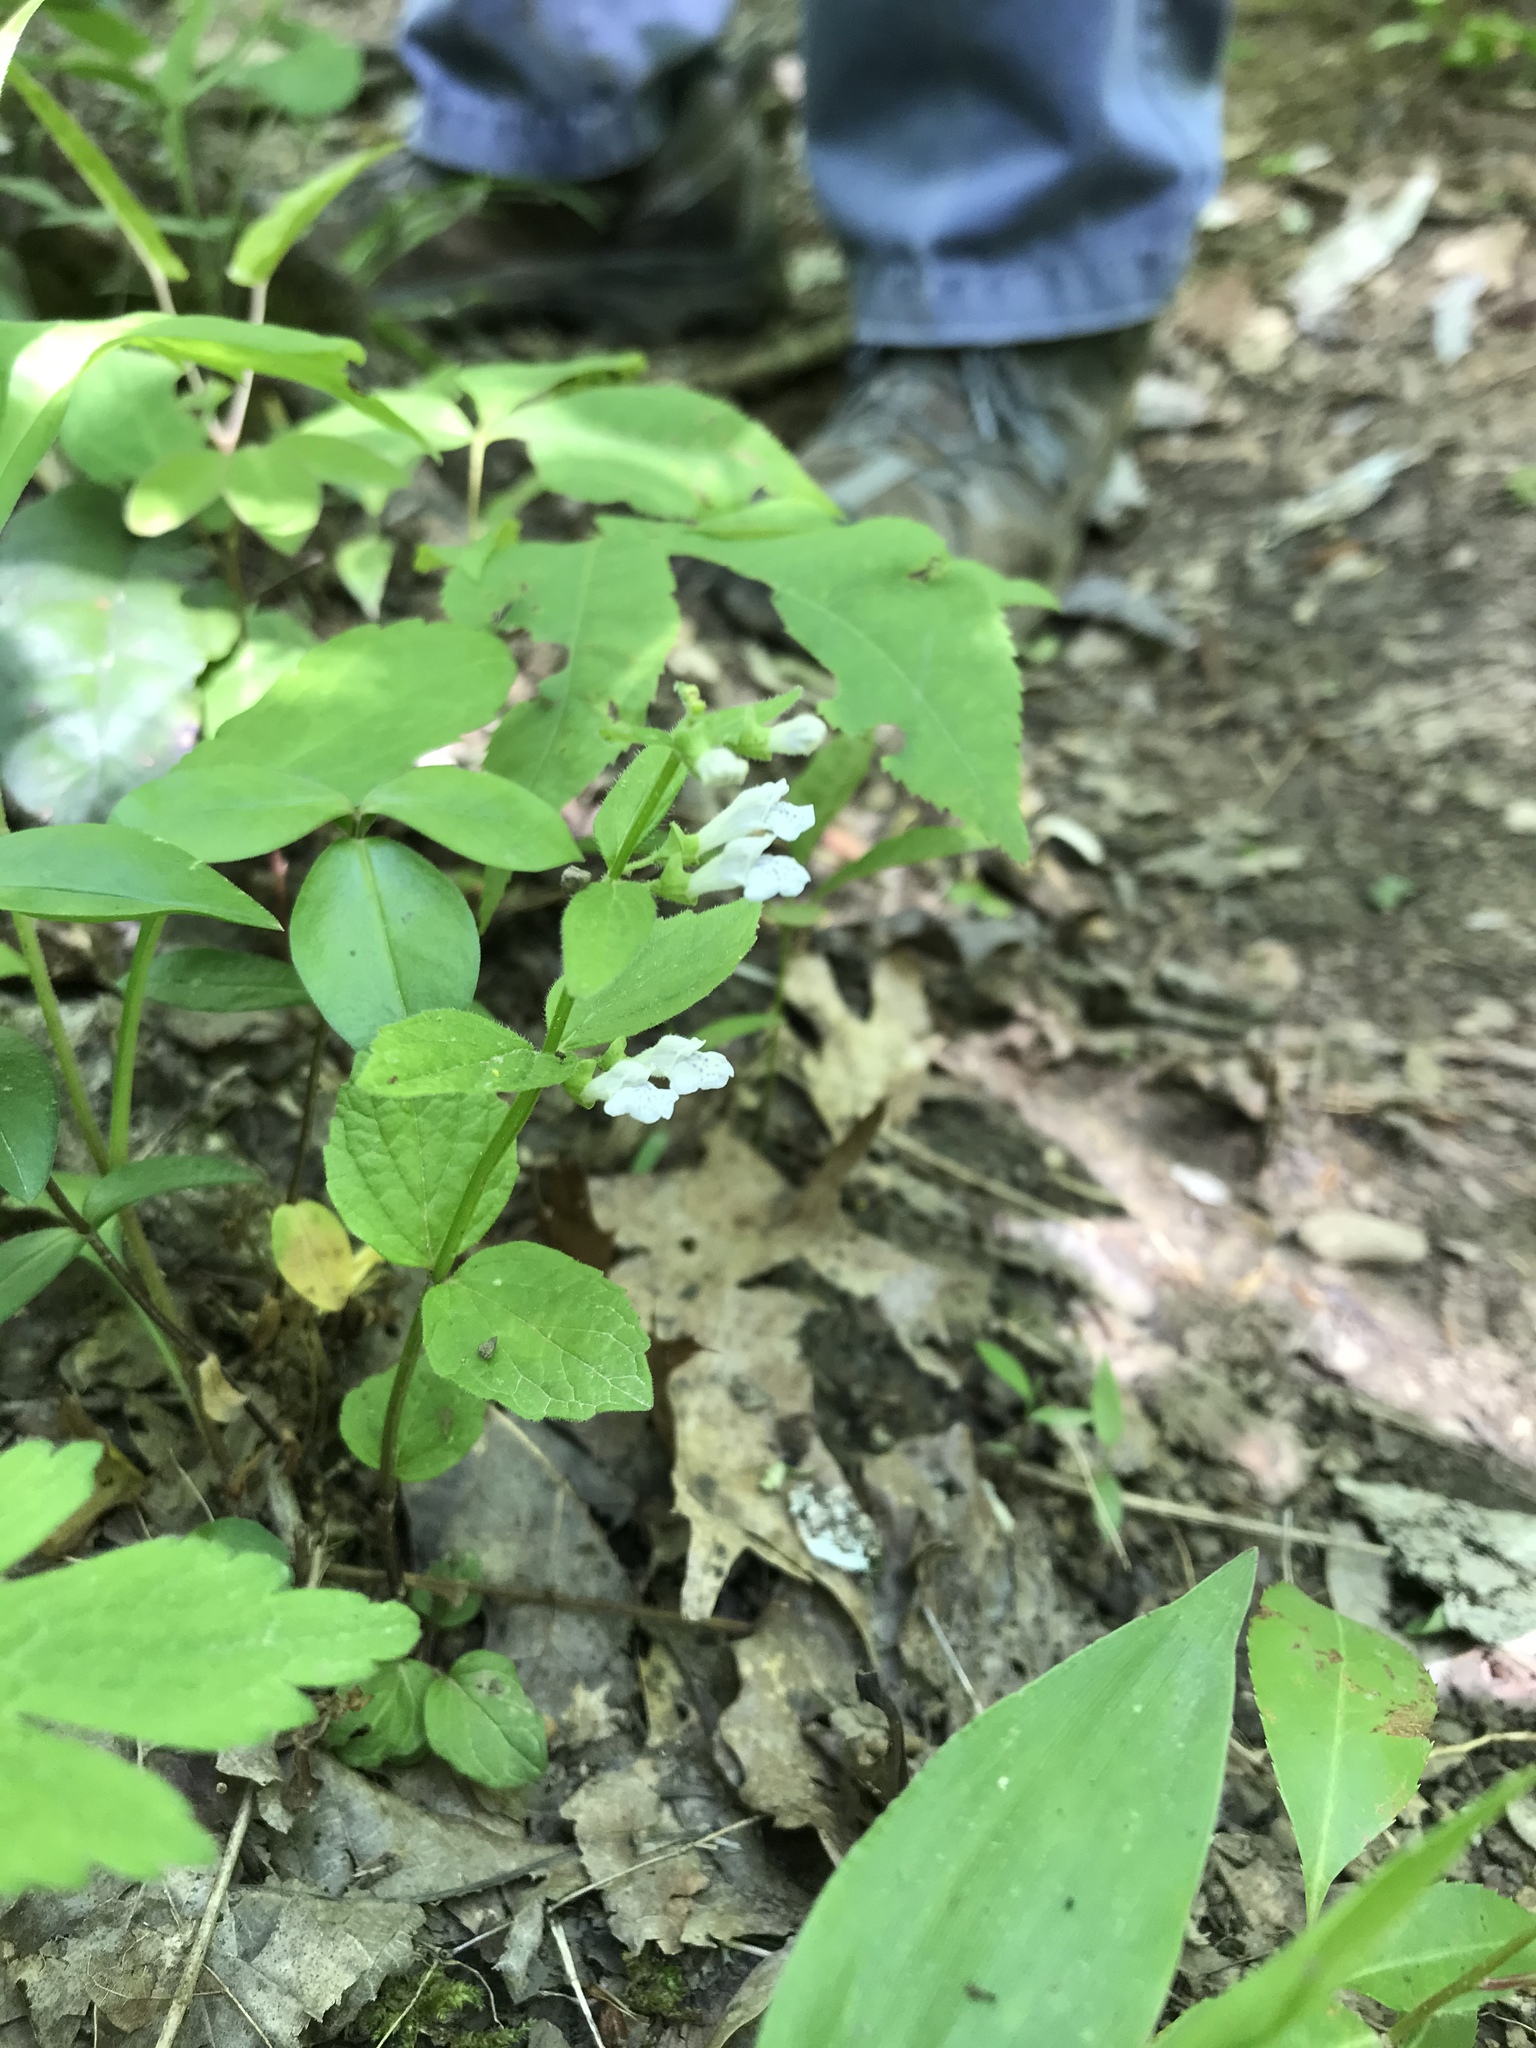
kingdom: Plantae
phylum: Tracheophyta
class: Magnoliopsida
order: Lamiales
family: Lamiaceae
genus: Scutellaria
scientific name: Scutellaria nervosa
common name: Bottomland skullcap
